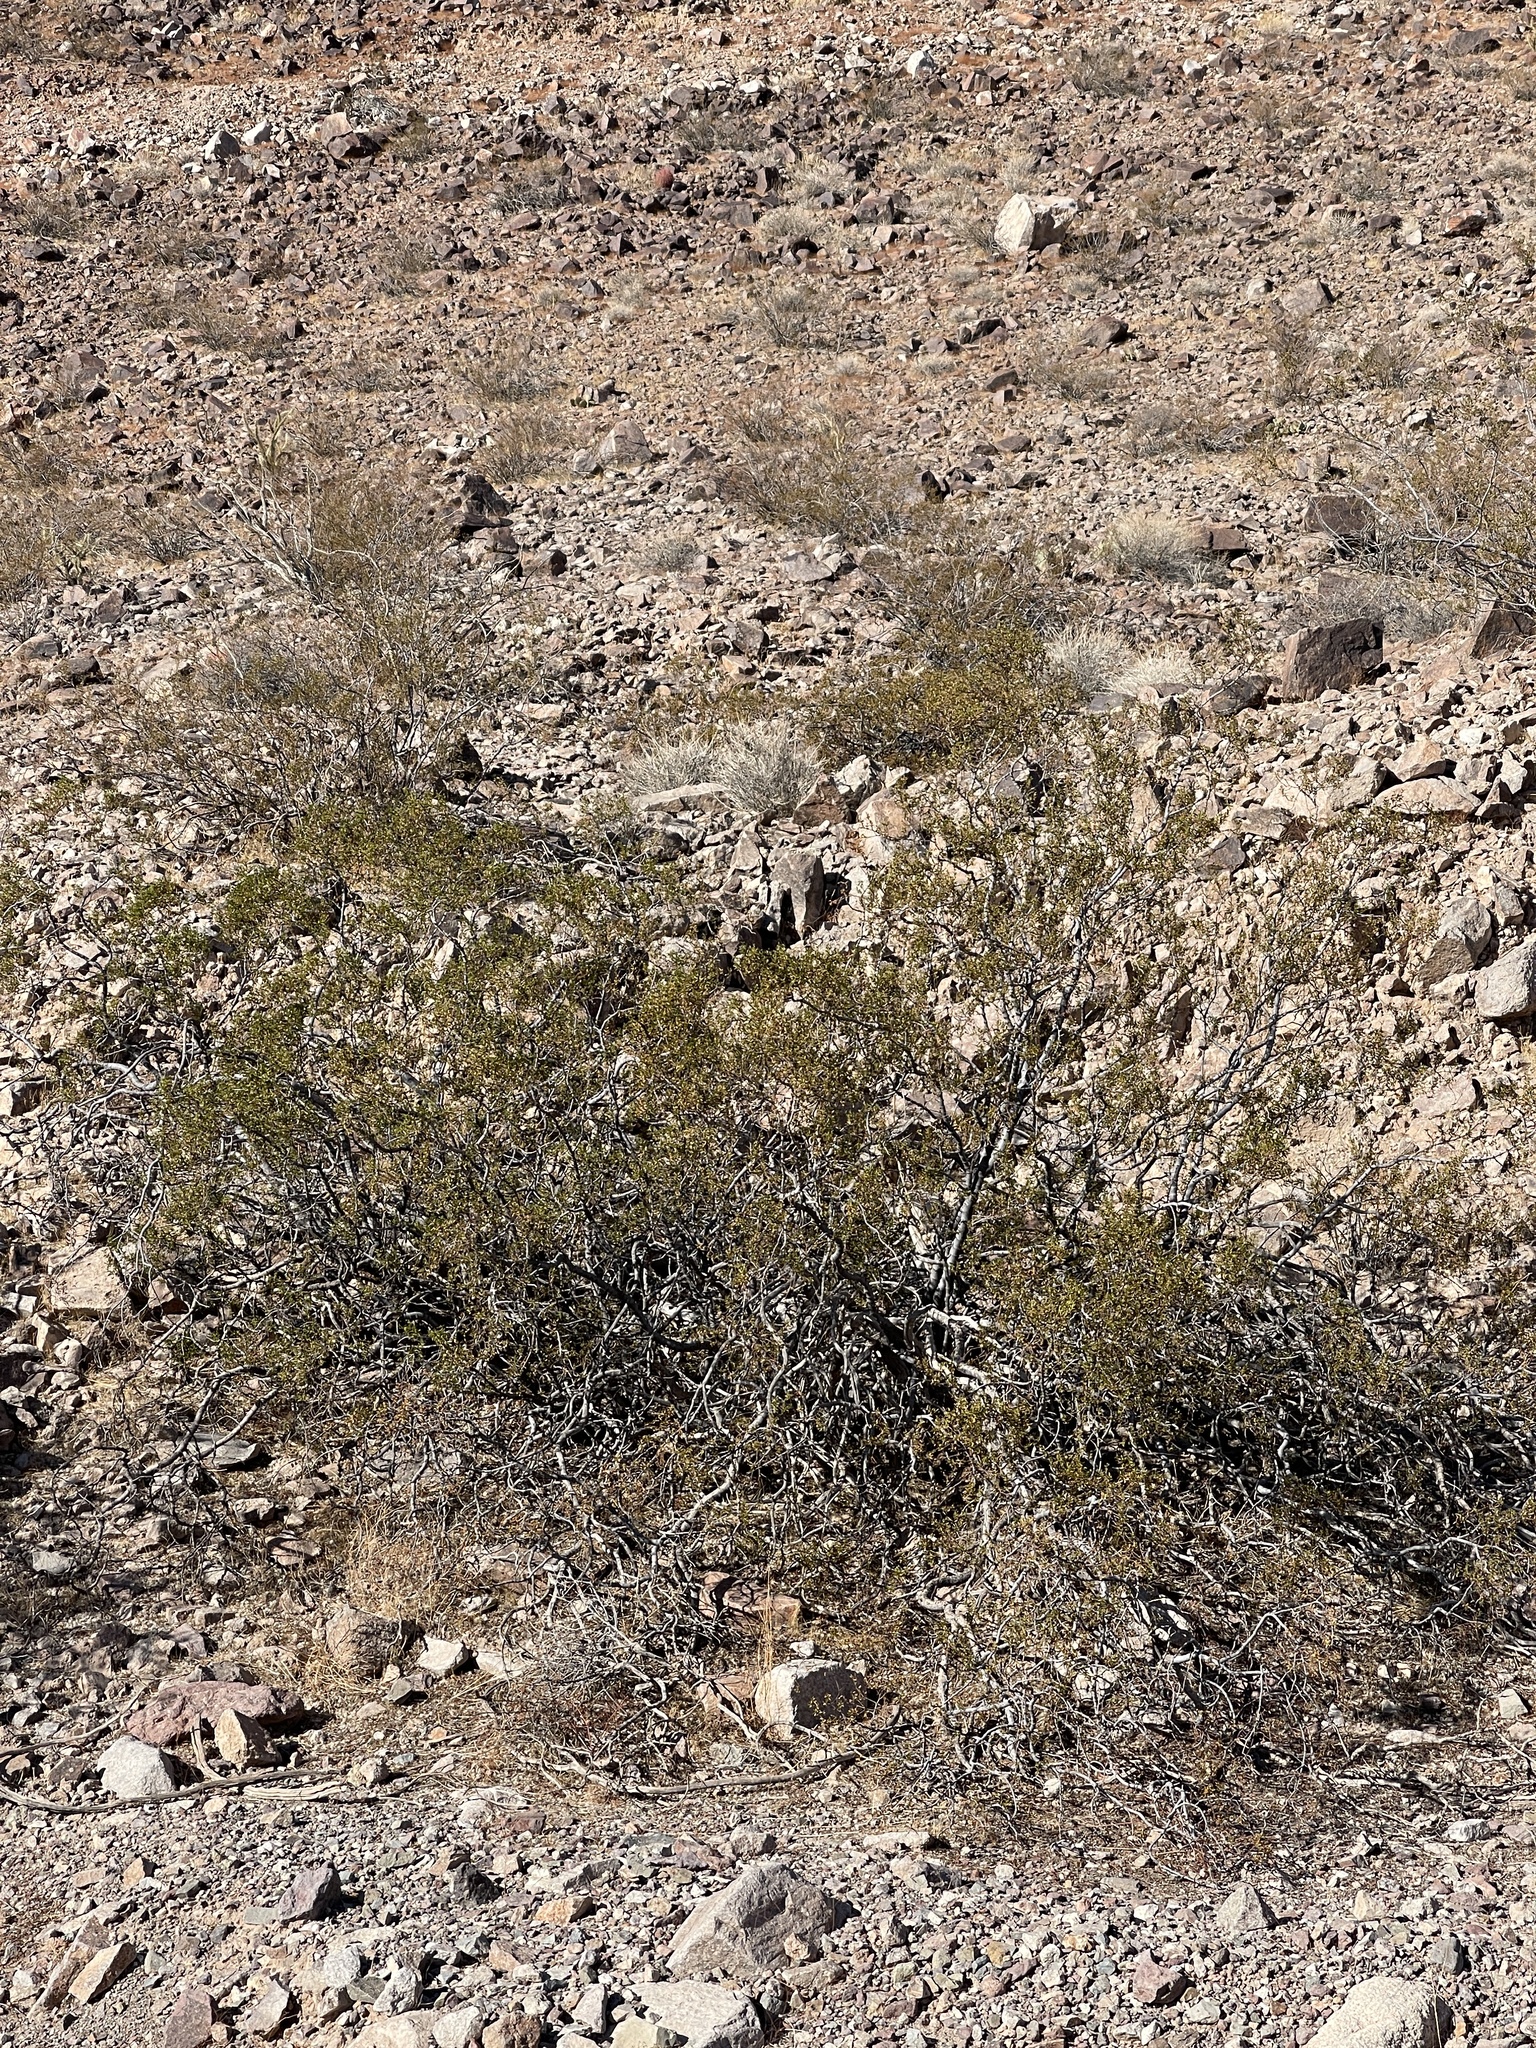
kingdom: Plantae
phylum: Tracheophyta
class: Magnoliopsida
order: Zygophyllales
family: Zygophyllaceae
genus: Larrea
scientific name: Larrea tridentata
